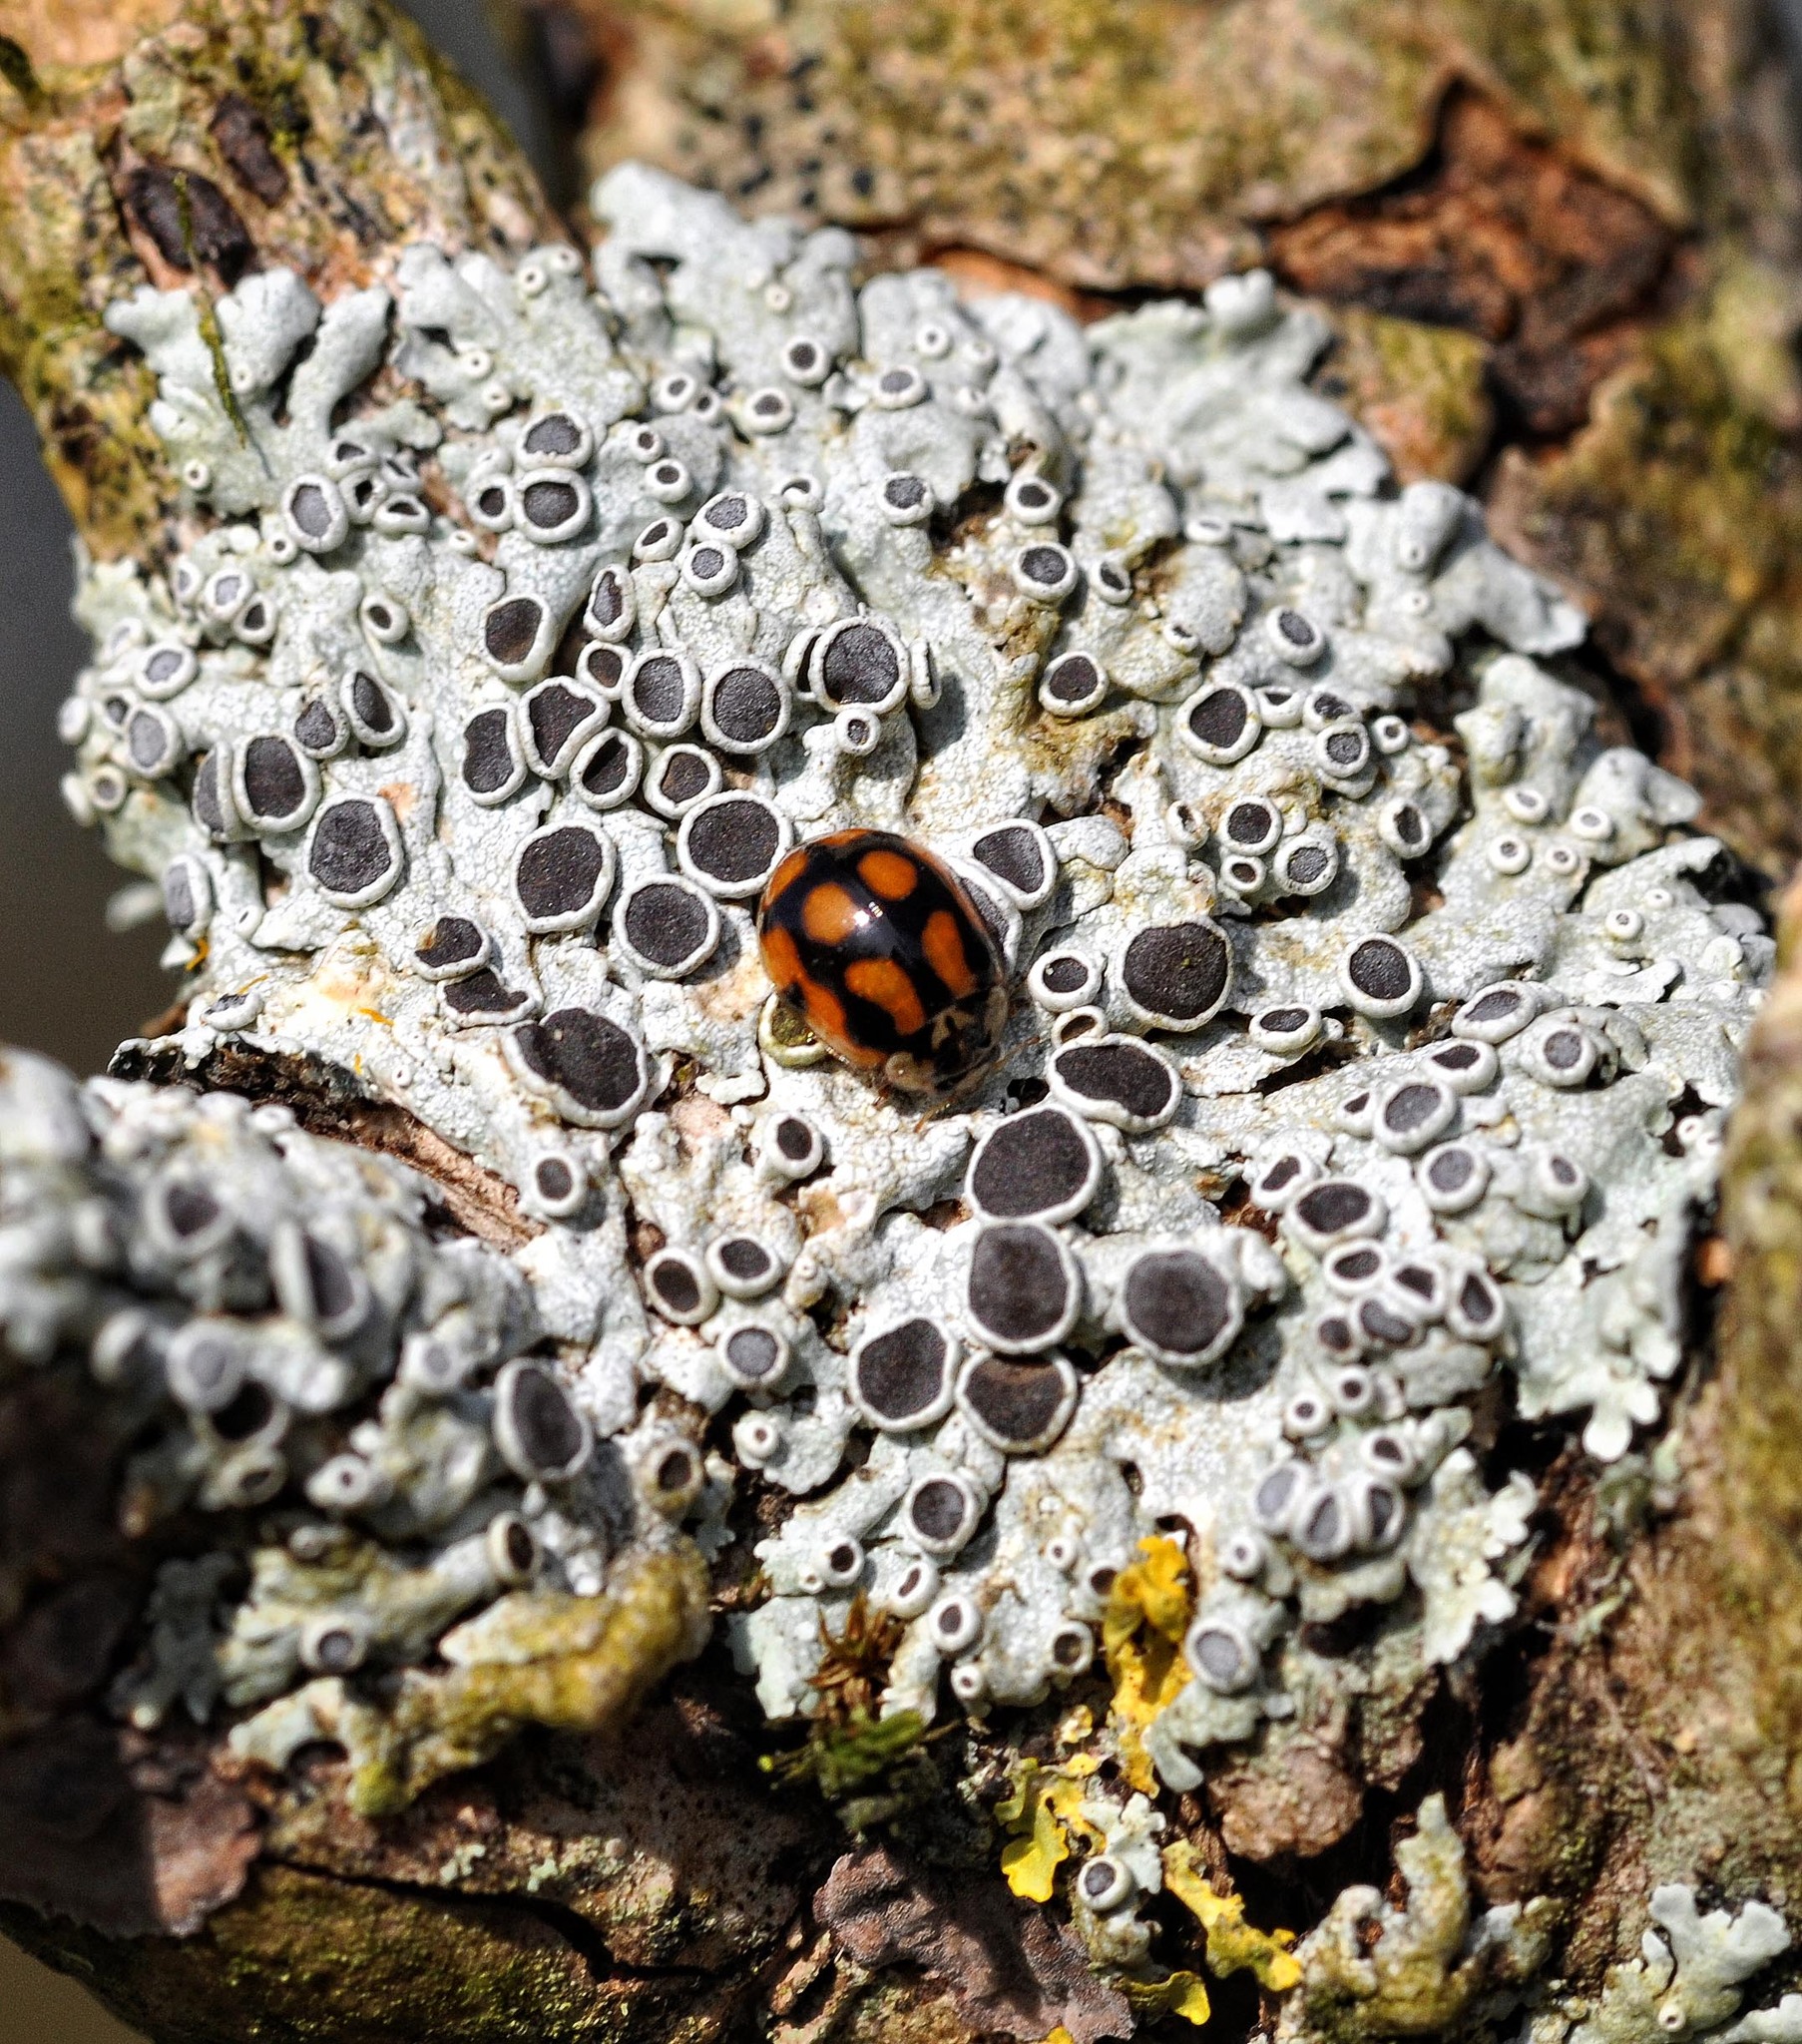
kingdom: Animalia
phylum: Arthropoda
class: Insecta
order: Coleoptera
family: Coccinellidae
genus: Adalia
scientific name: Adalia decempunctata
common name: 10-spot ladybird
